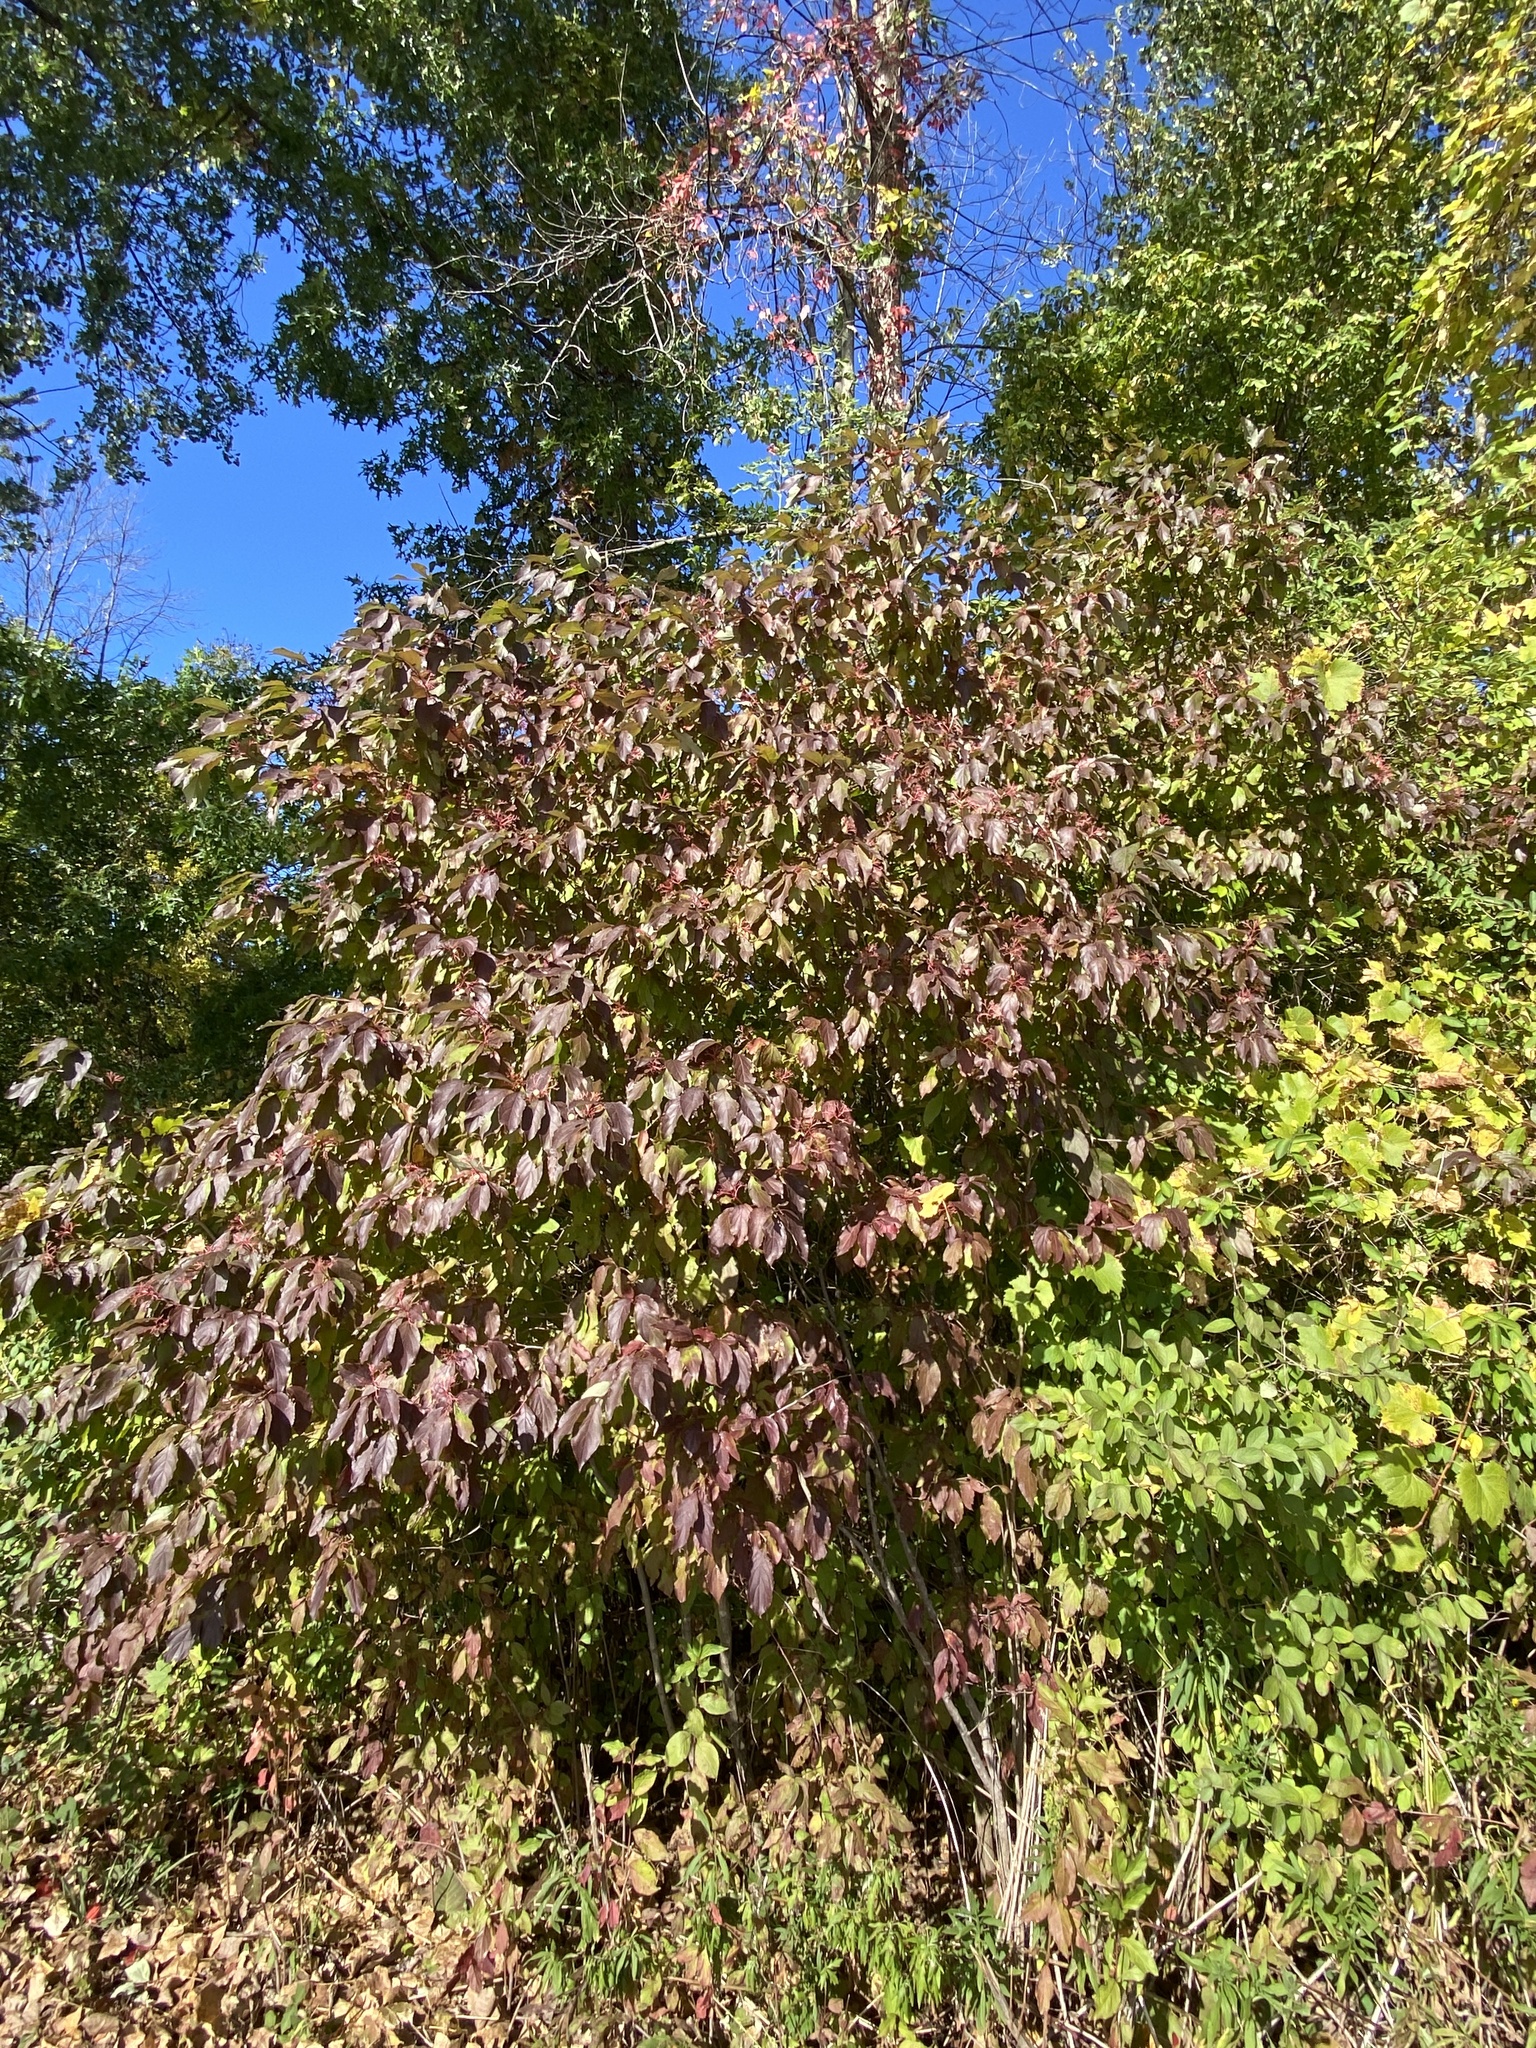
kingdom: Plantae
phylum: Tracheophyta
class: Magnoliopsida
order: Cornales
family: Cornaceae
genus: Cornus
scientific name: Cornus racemosa
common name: Panicled dogwood
